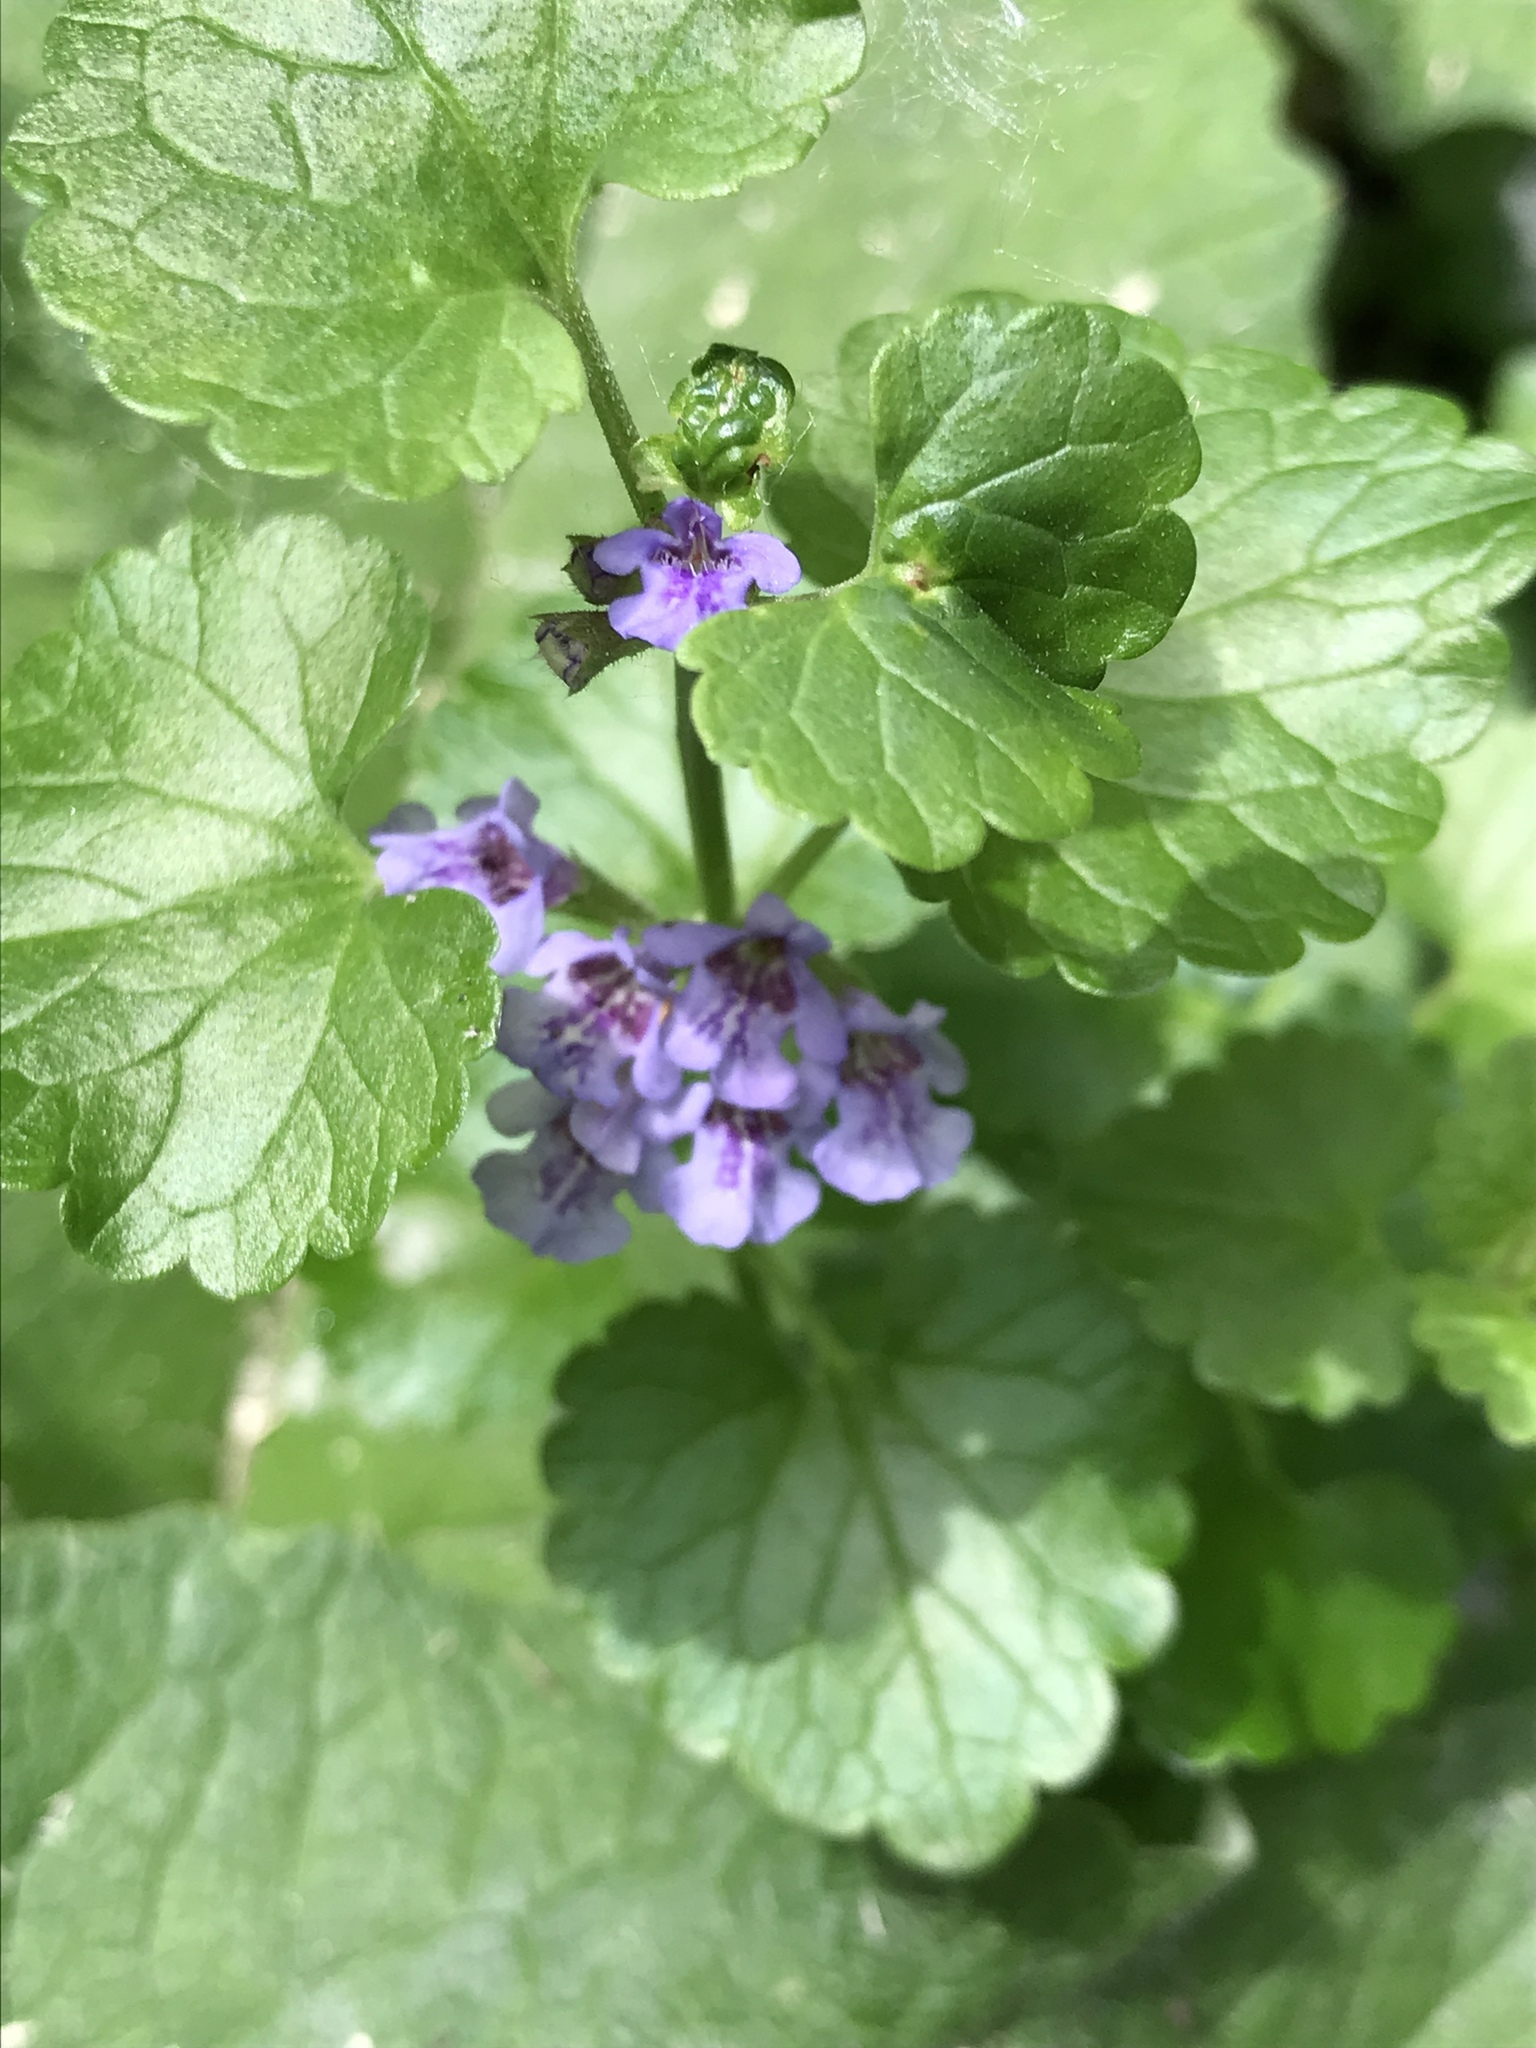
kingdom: Plantae
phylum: Tracheophyta
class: Magnoliopsida
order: Lamiales
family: Lamiaceae
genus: Glechoma
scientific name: Glechoma hederacea
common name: Ground ivy
